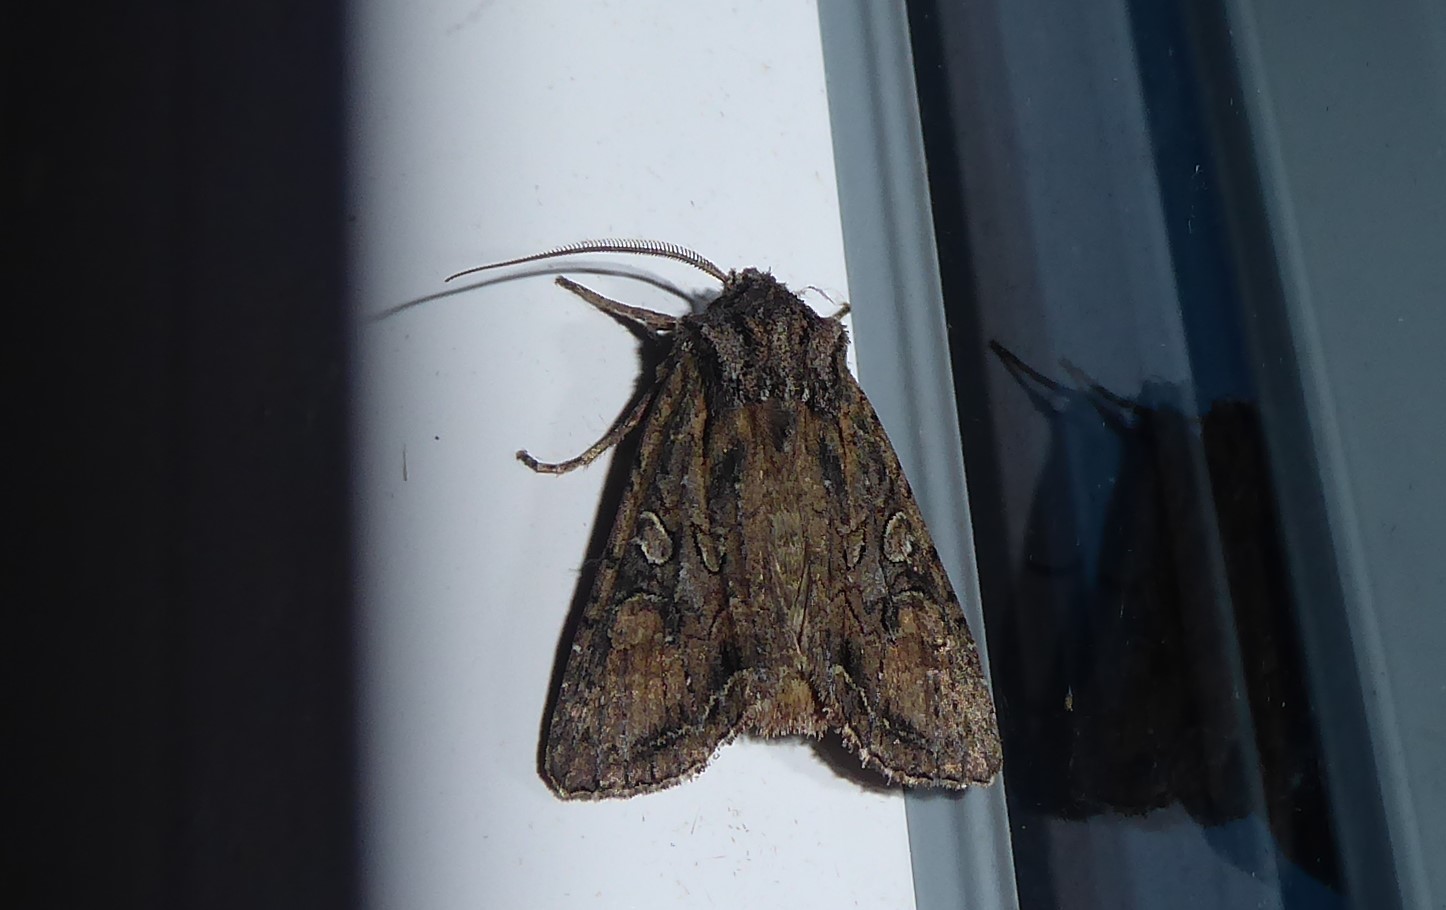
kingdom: Animalia
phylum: Arthropoda
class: Insecta
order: Lepidoptera
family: Noctuidae
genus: Ichneutica
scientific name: Ichneutica mutans
